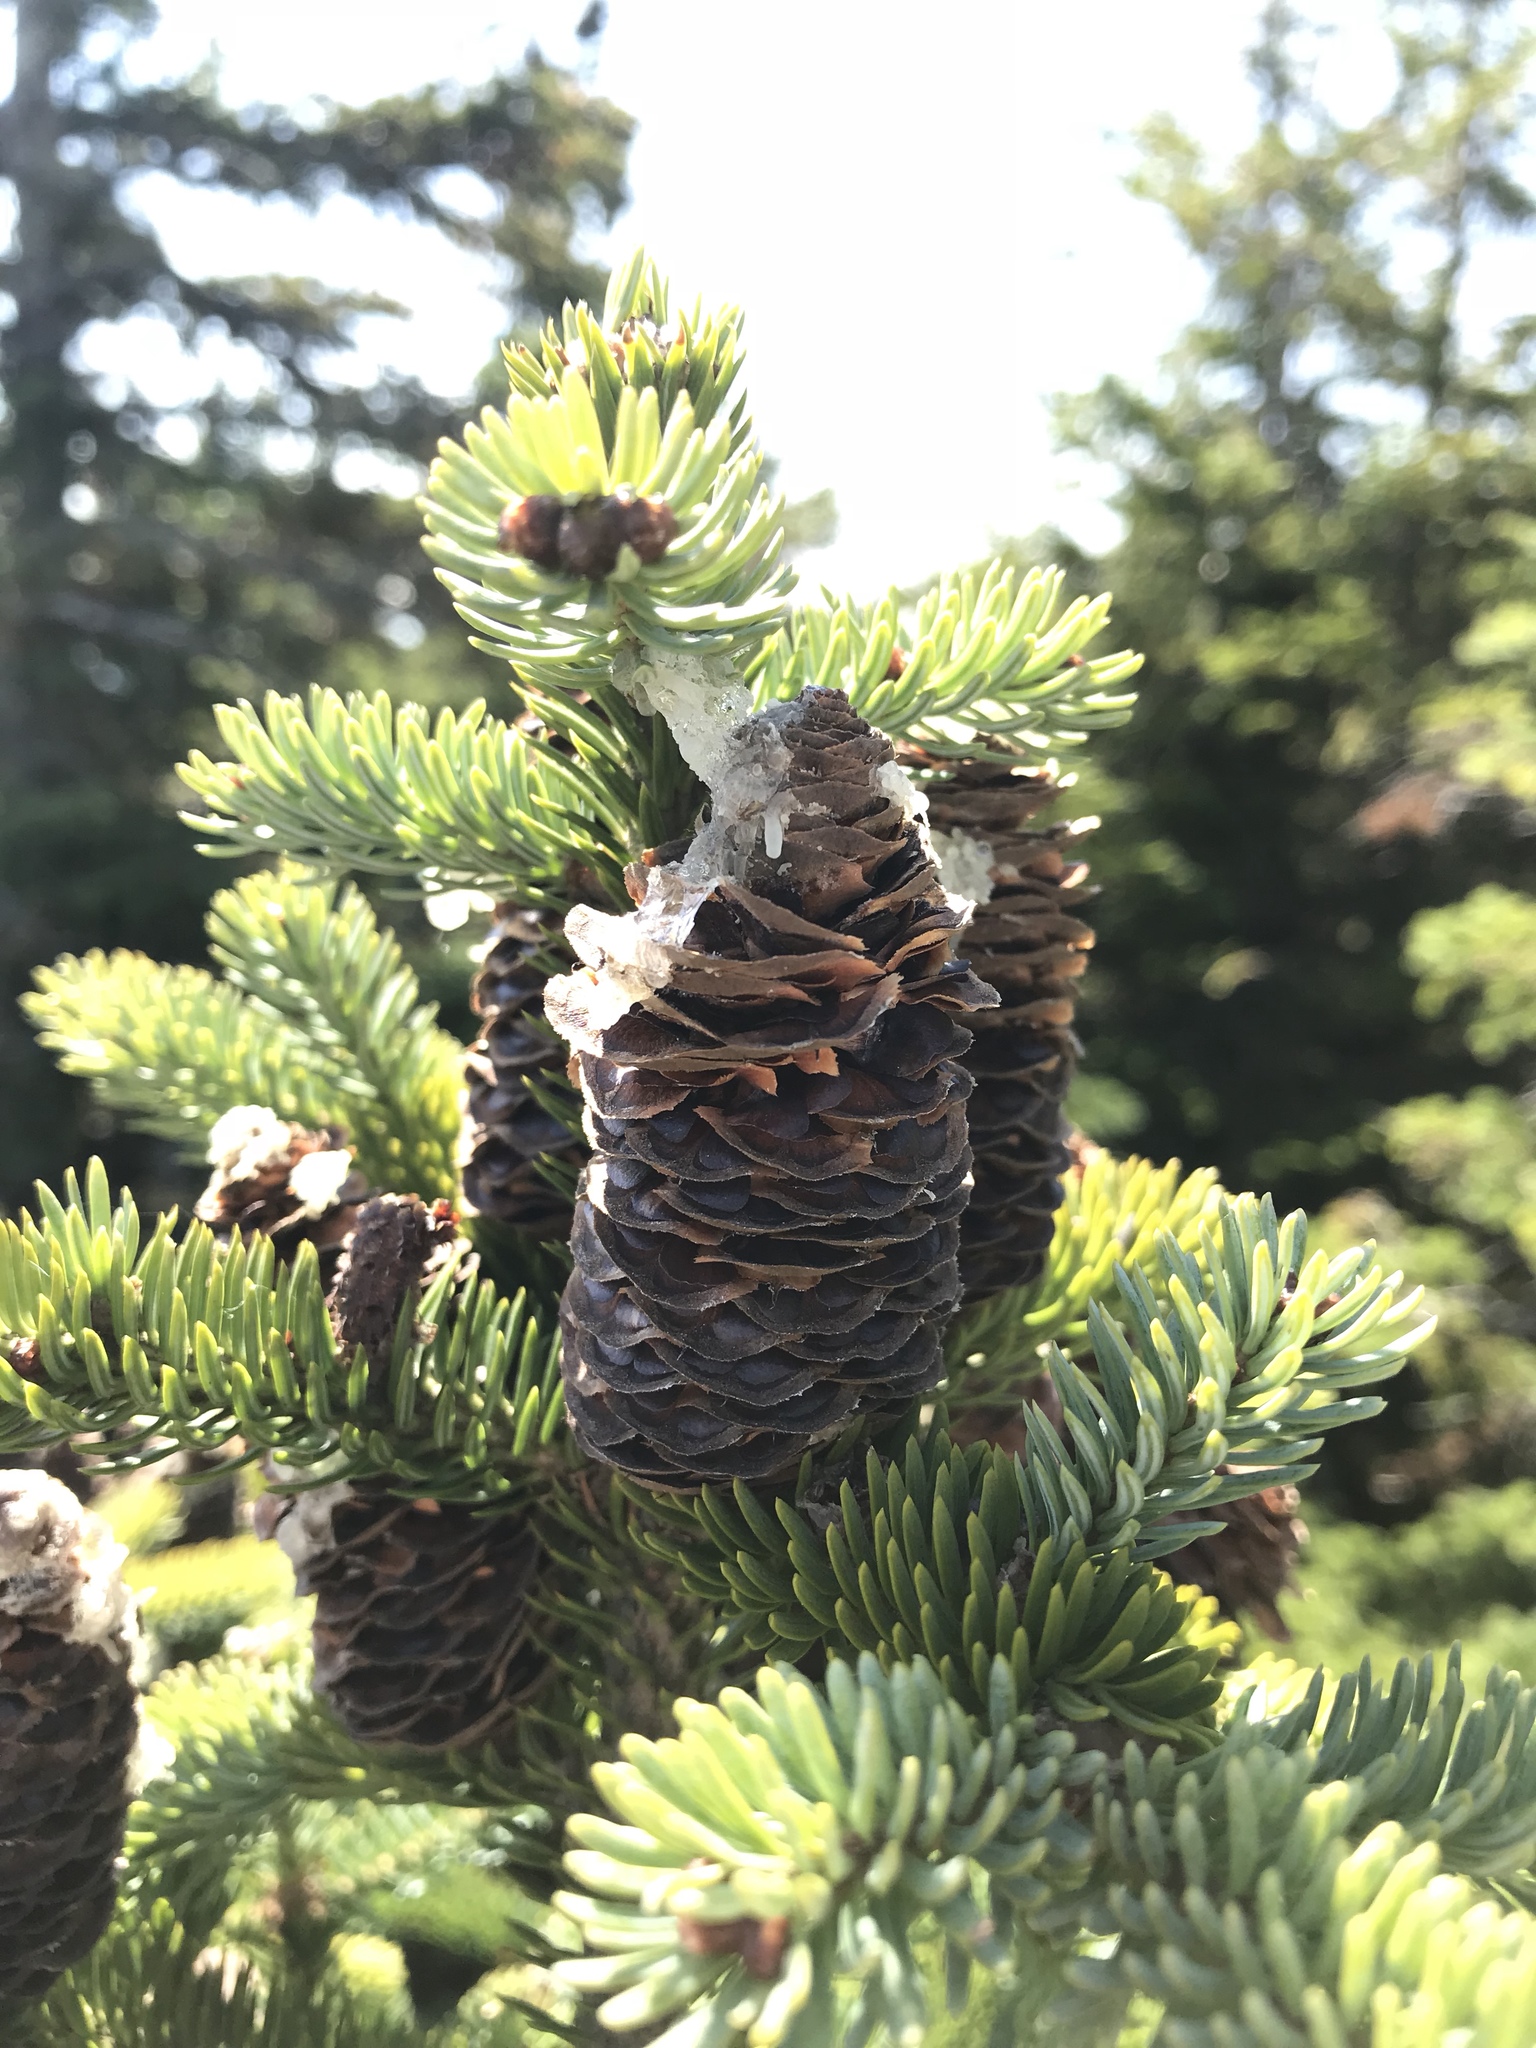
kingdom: Plantae
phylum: Tracheophyta
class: Pinopsida
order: Pinales
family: Pinaceae
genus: Abies
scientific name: Abies balsamea
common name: Balsam fir
